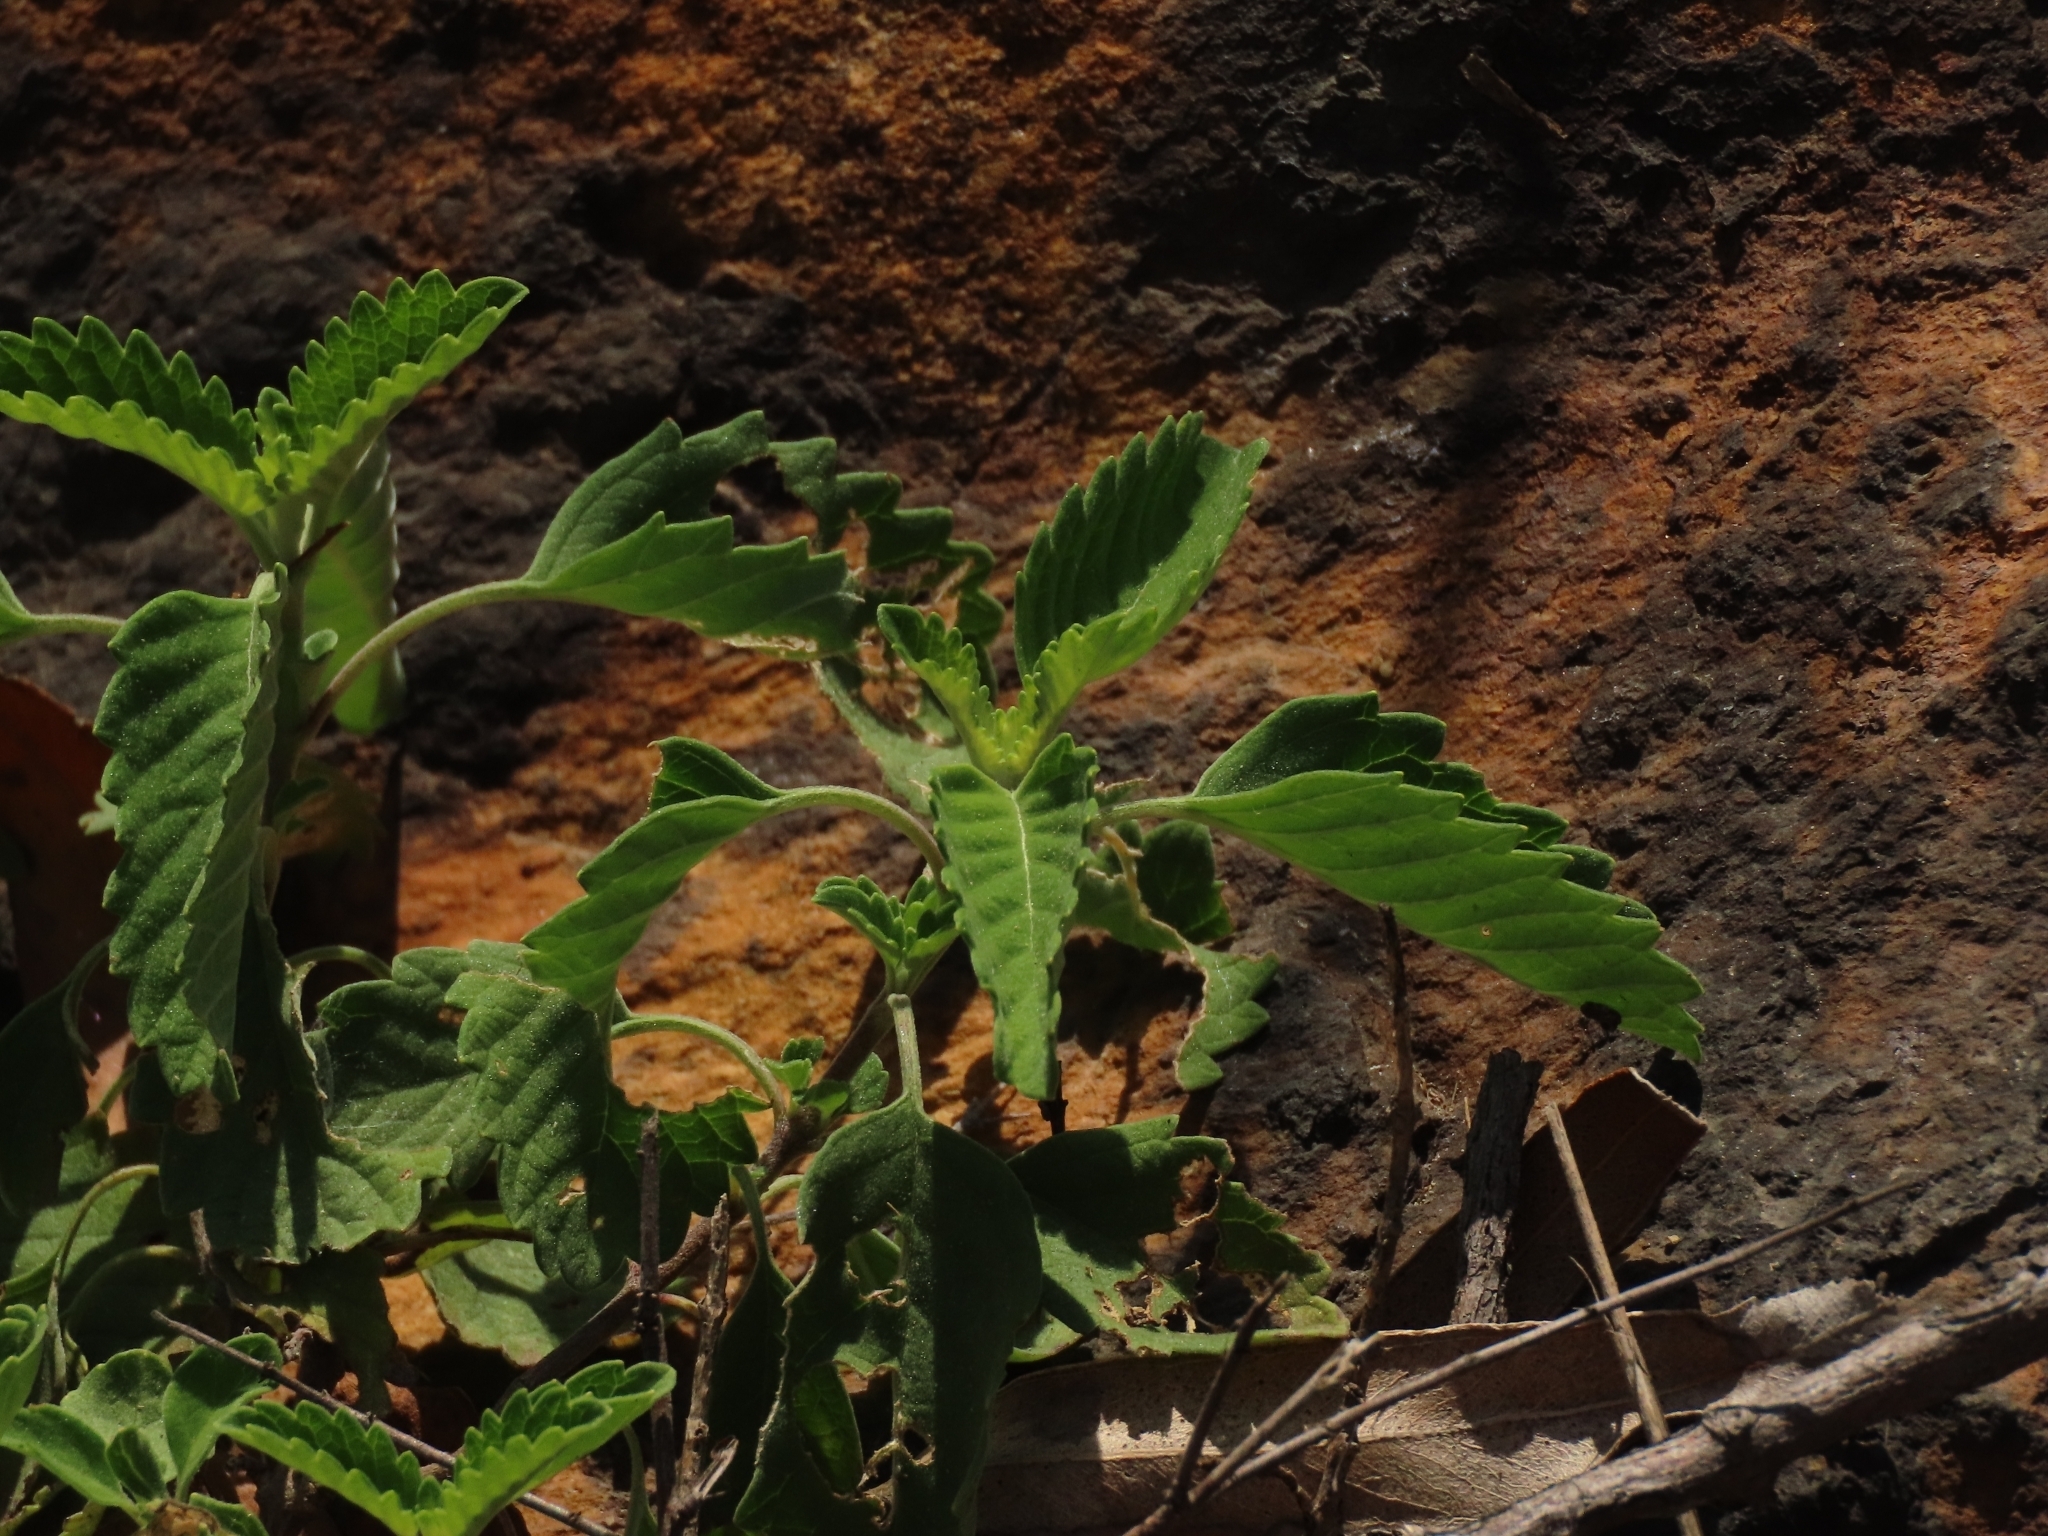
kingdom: Plantae
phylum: Tracheophyta
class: Magnoliopsida
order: Lamiales
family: Lamiaceae
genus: Caryopteris
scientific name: Caryopteris incana
